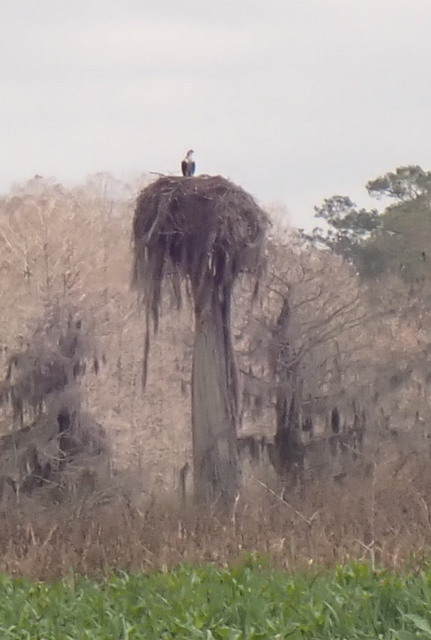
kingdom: Animalia
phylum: Chordata
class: Aves
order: Accipitriformes
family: Pandionidae
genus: Pandion
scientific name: Pandion haliaetus
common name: Osprey
